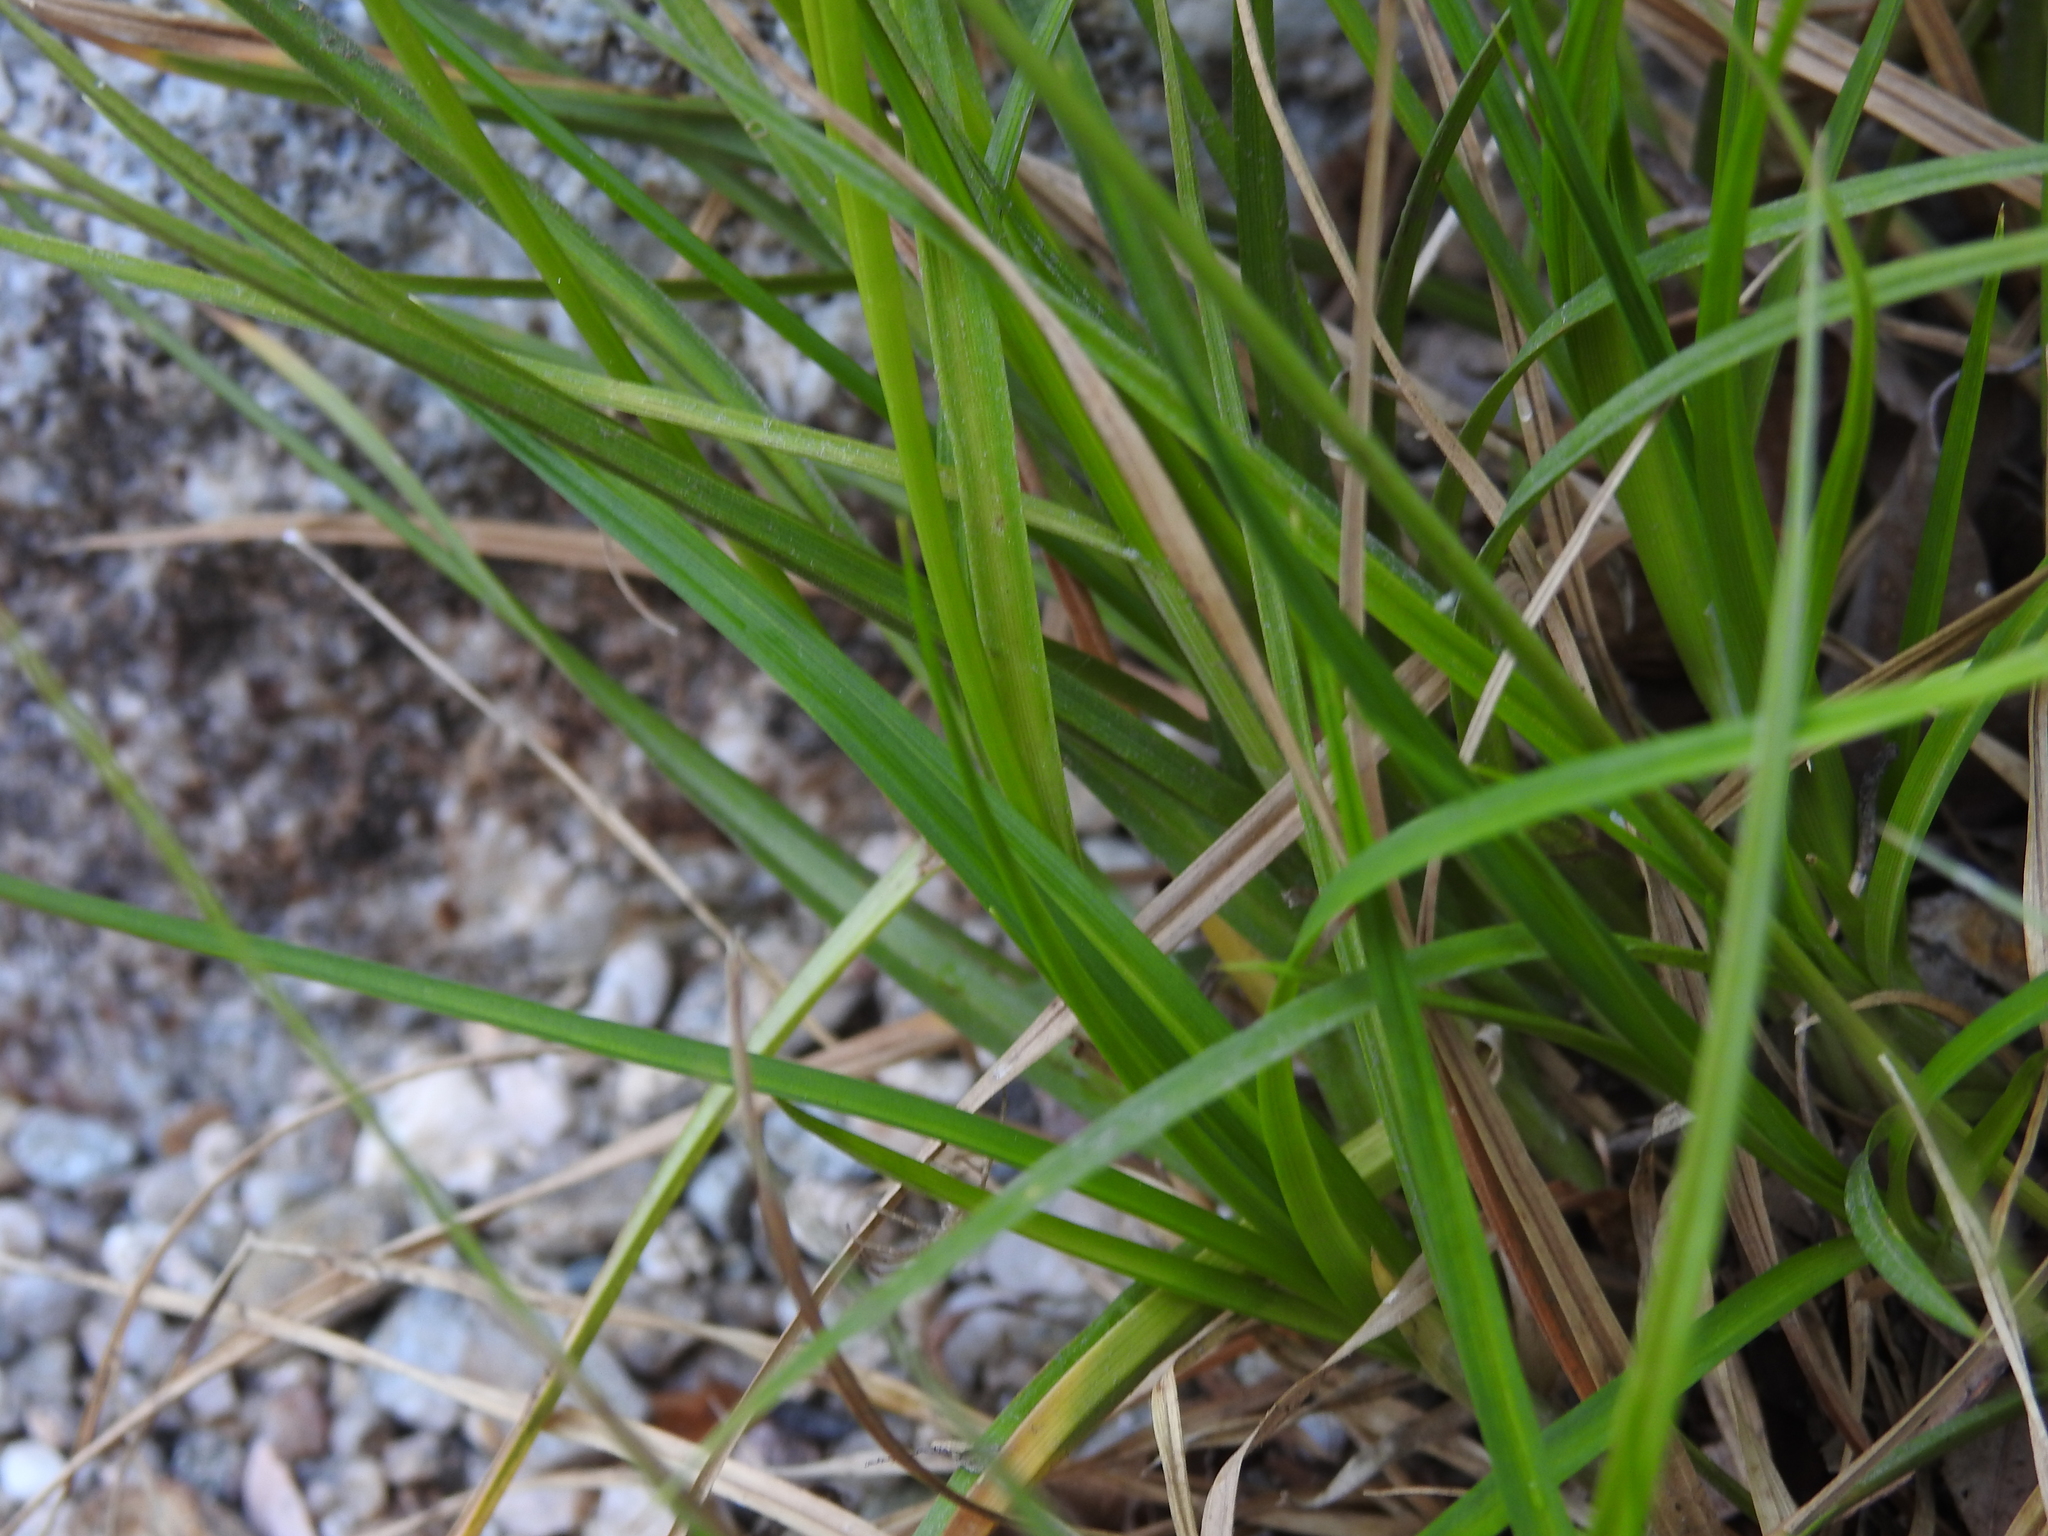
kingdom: Plantae
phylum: Tracheophyta
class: Liliopsida
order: Poales
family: Cyperaceae
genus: Carex
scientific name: Carex leporina
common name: Oval sedge
